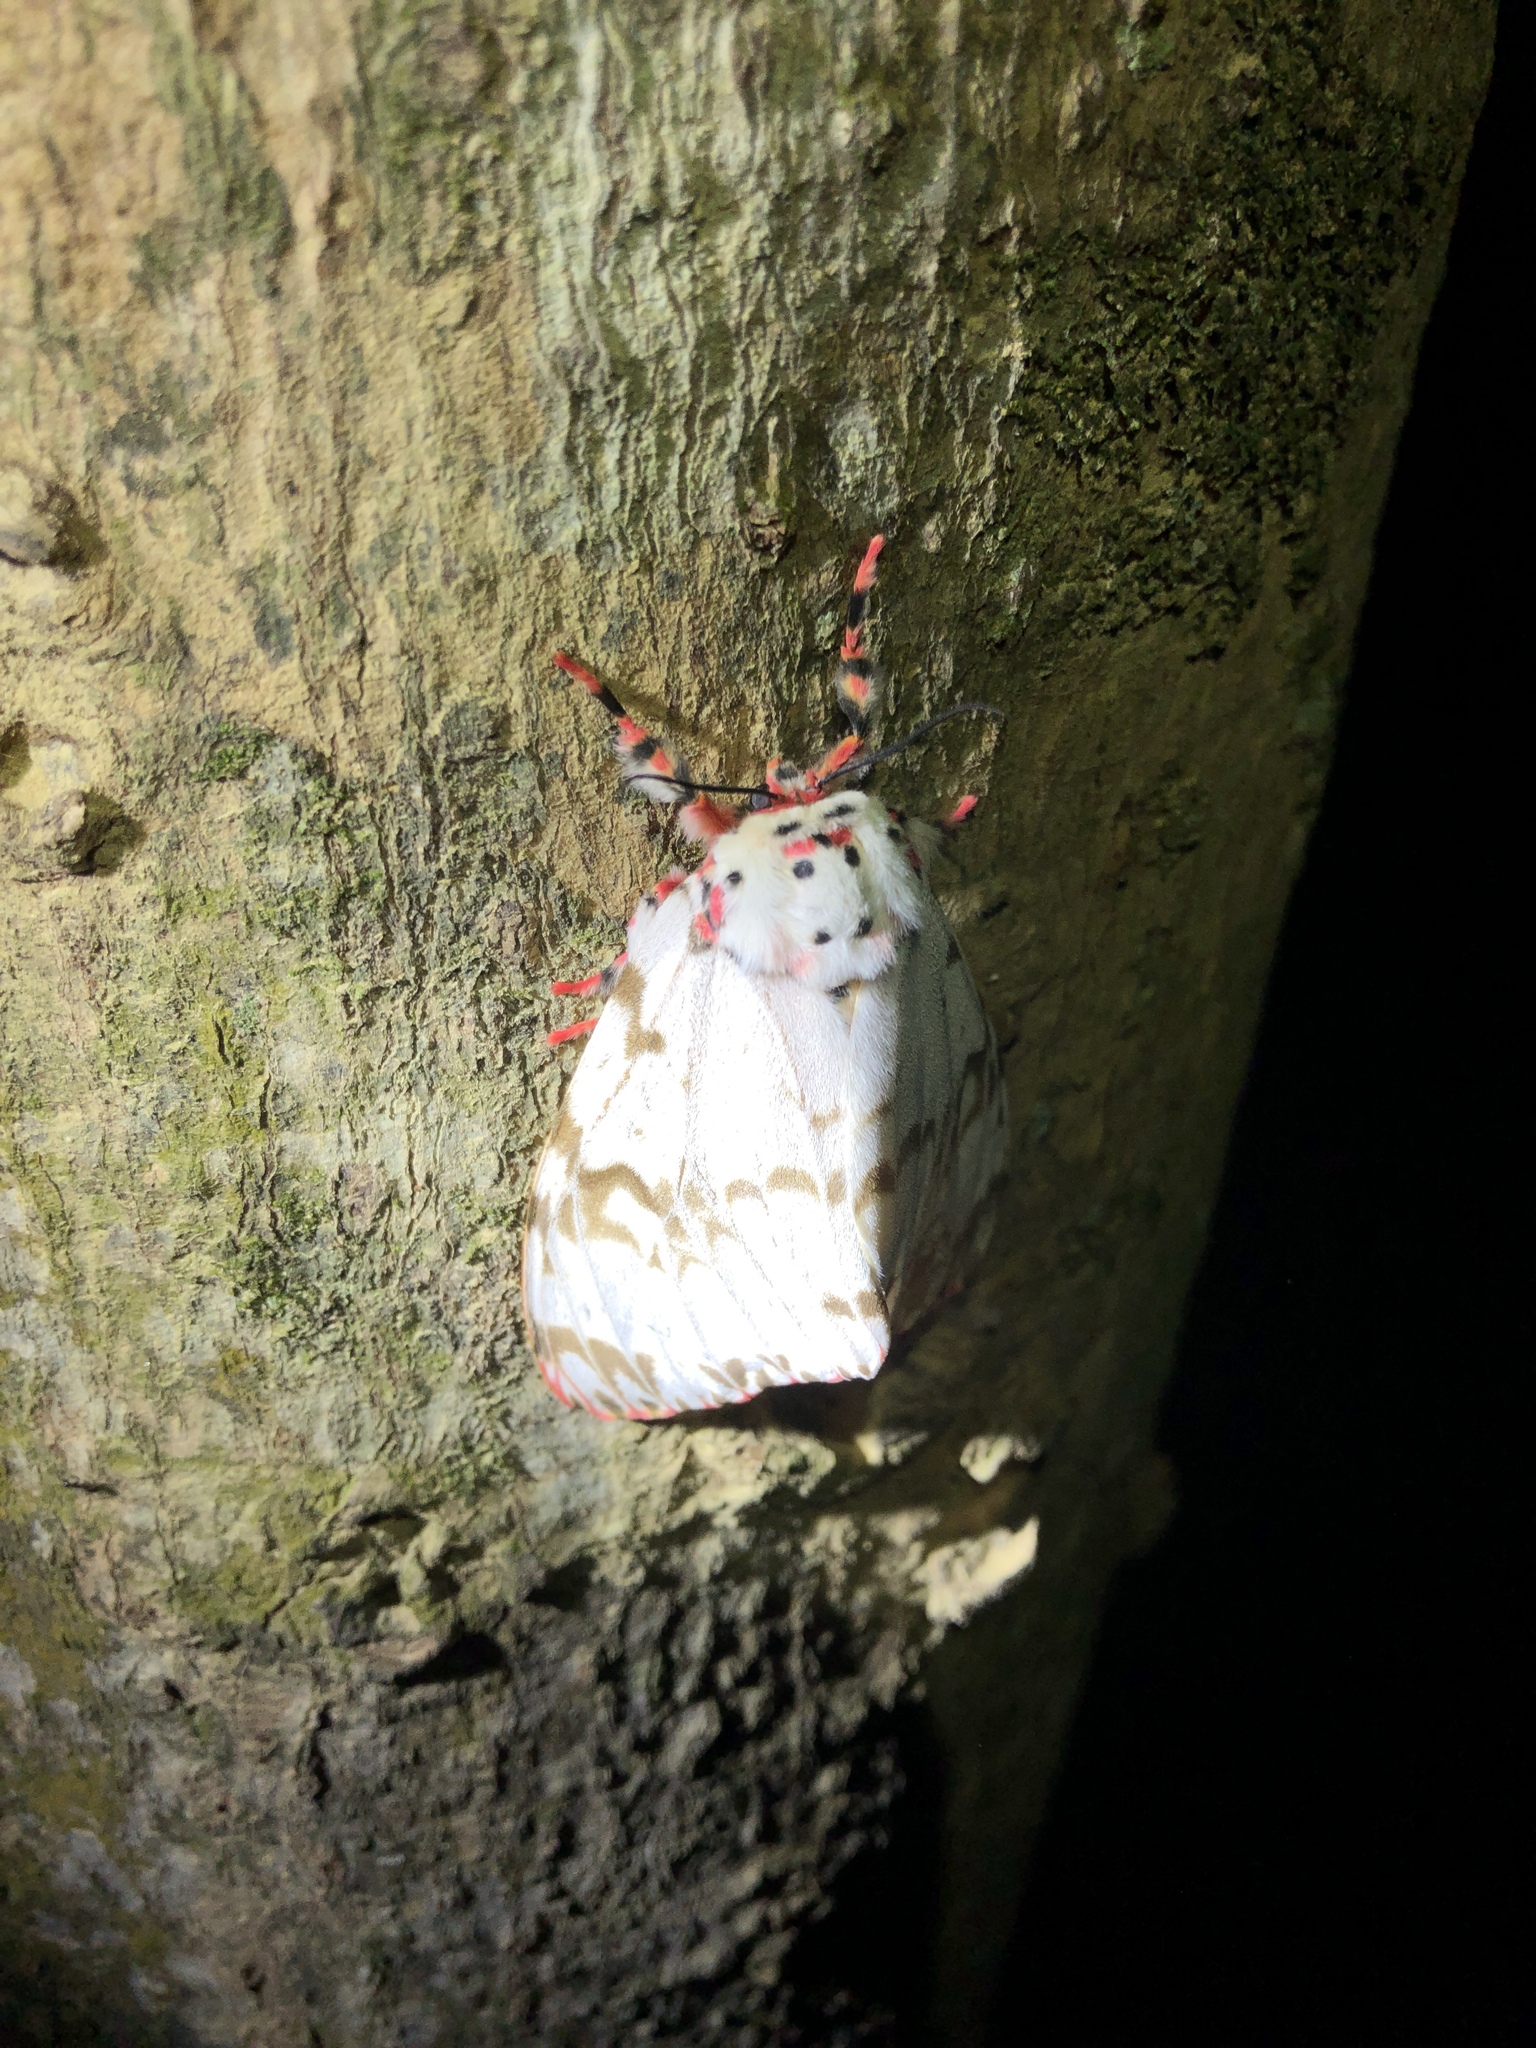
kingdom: Animalia
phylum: Arthropoda
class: Insecta
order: Lepidoptera
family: Erebidae
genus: Lymantria
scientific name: Lymantria mathura
